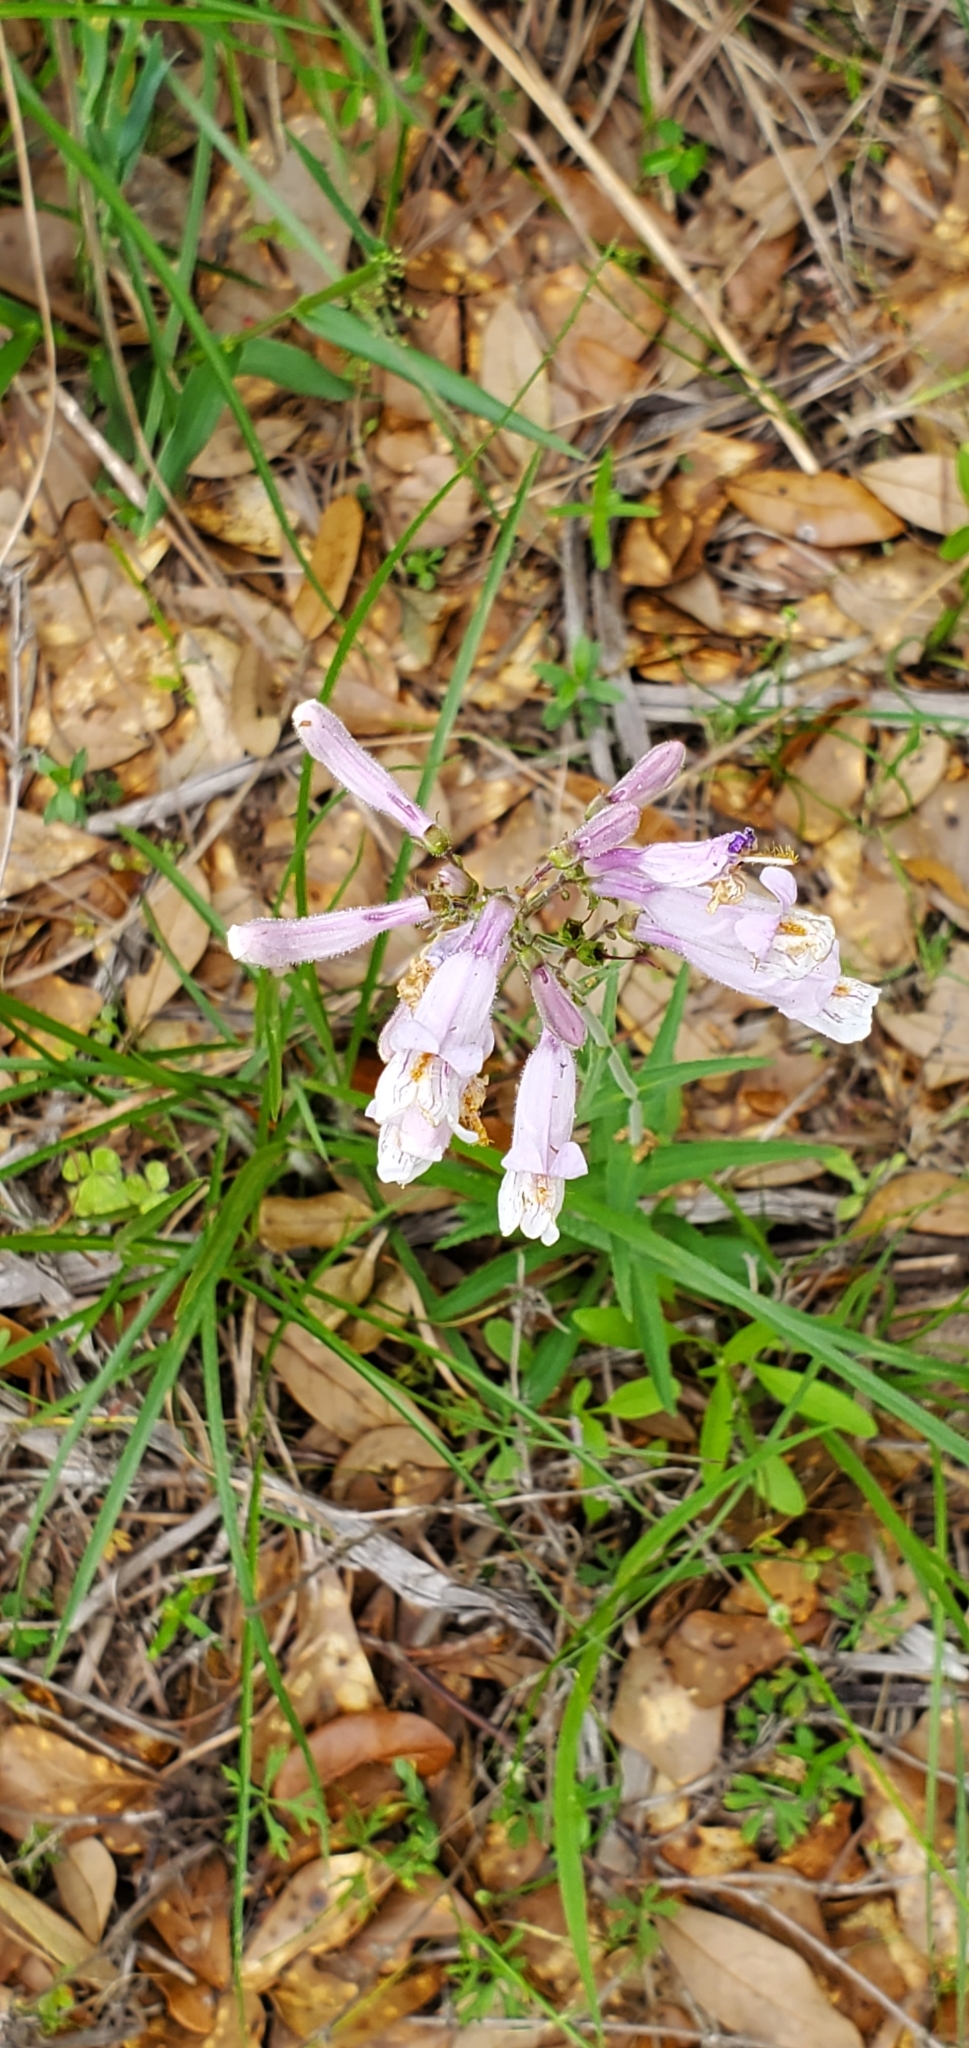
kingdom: Plantae
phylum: Tracheophyta
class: Magnoliopsida
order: Lamiales
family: Plantaginaceae
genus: Penstemon
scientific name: Penstemon laxiflorus
